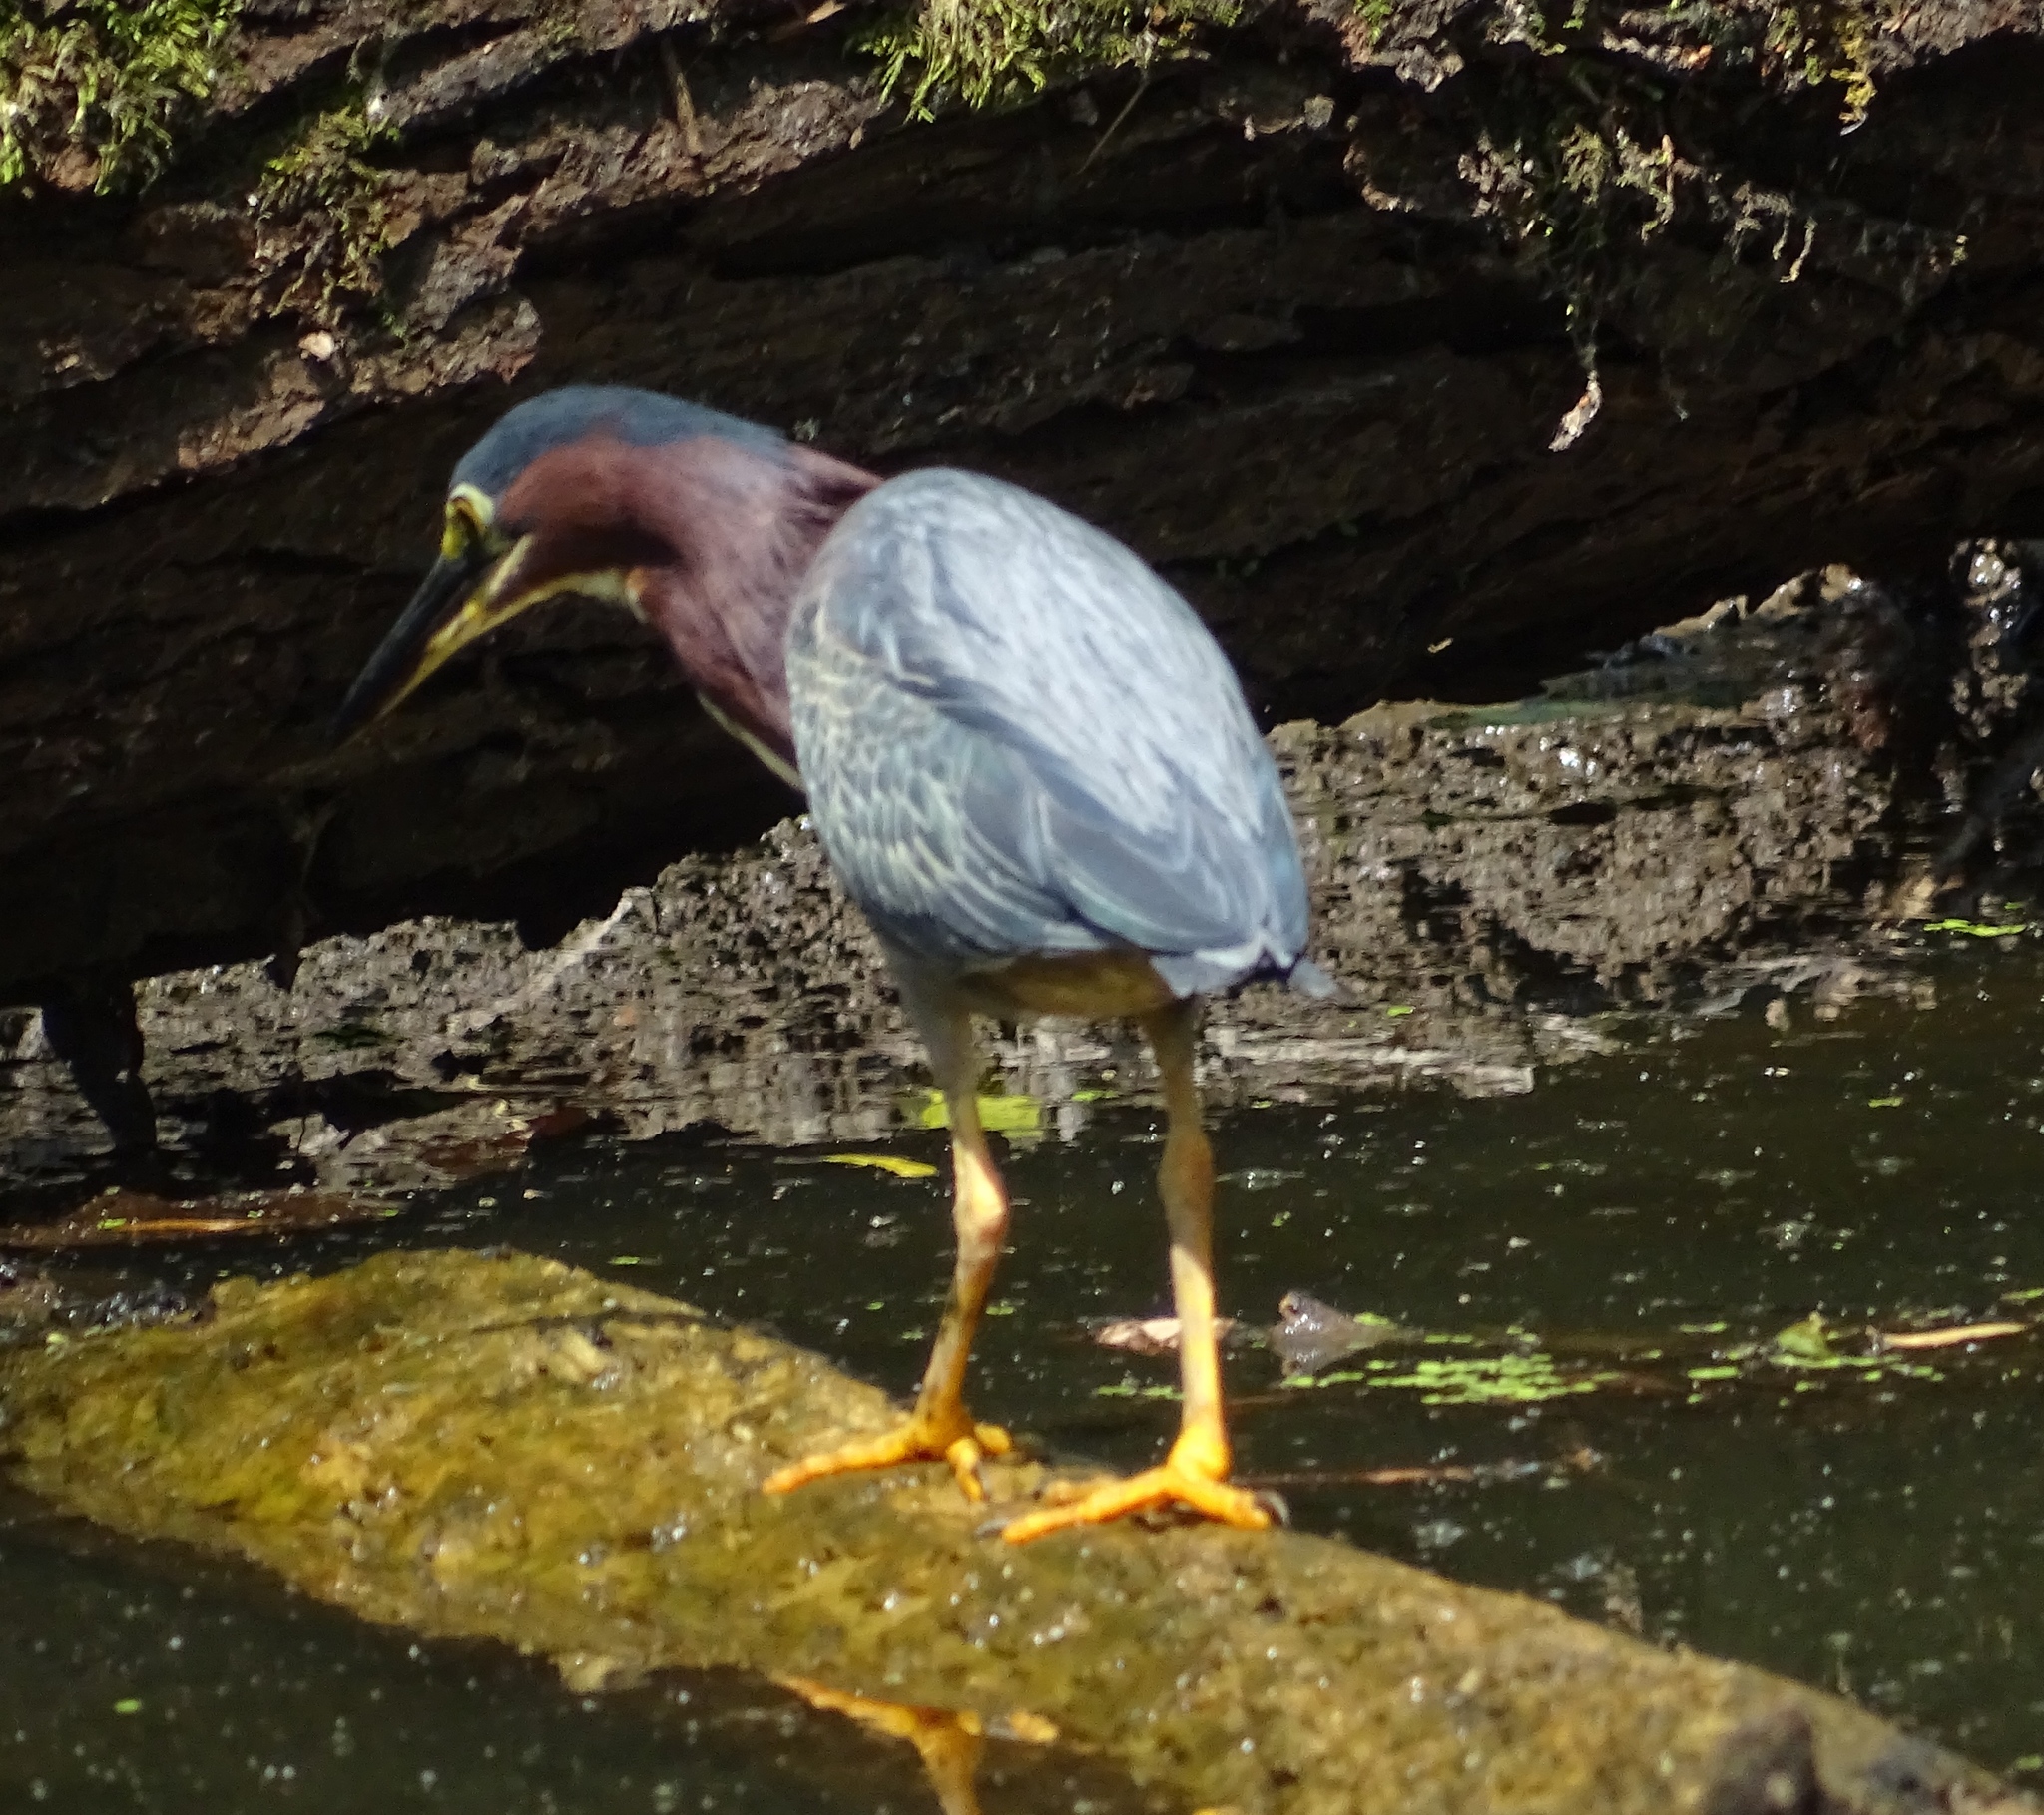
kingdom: Animalia
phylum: Chordata
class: Aves
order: Pelecaniformes
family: Ardeidae
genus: Butorides
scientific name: Butorides virescens
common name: Green heron
